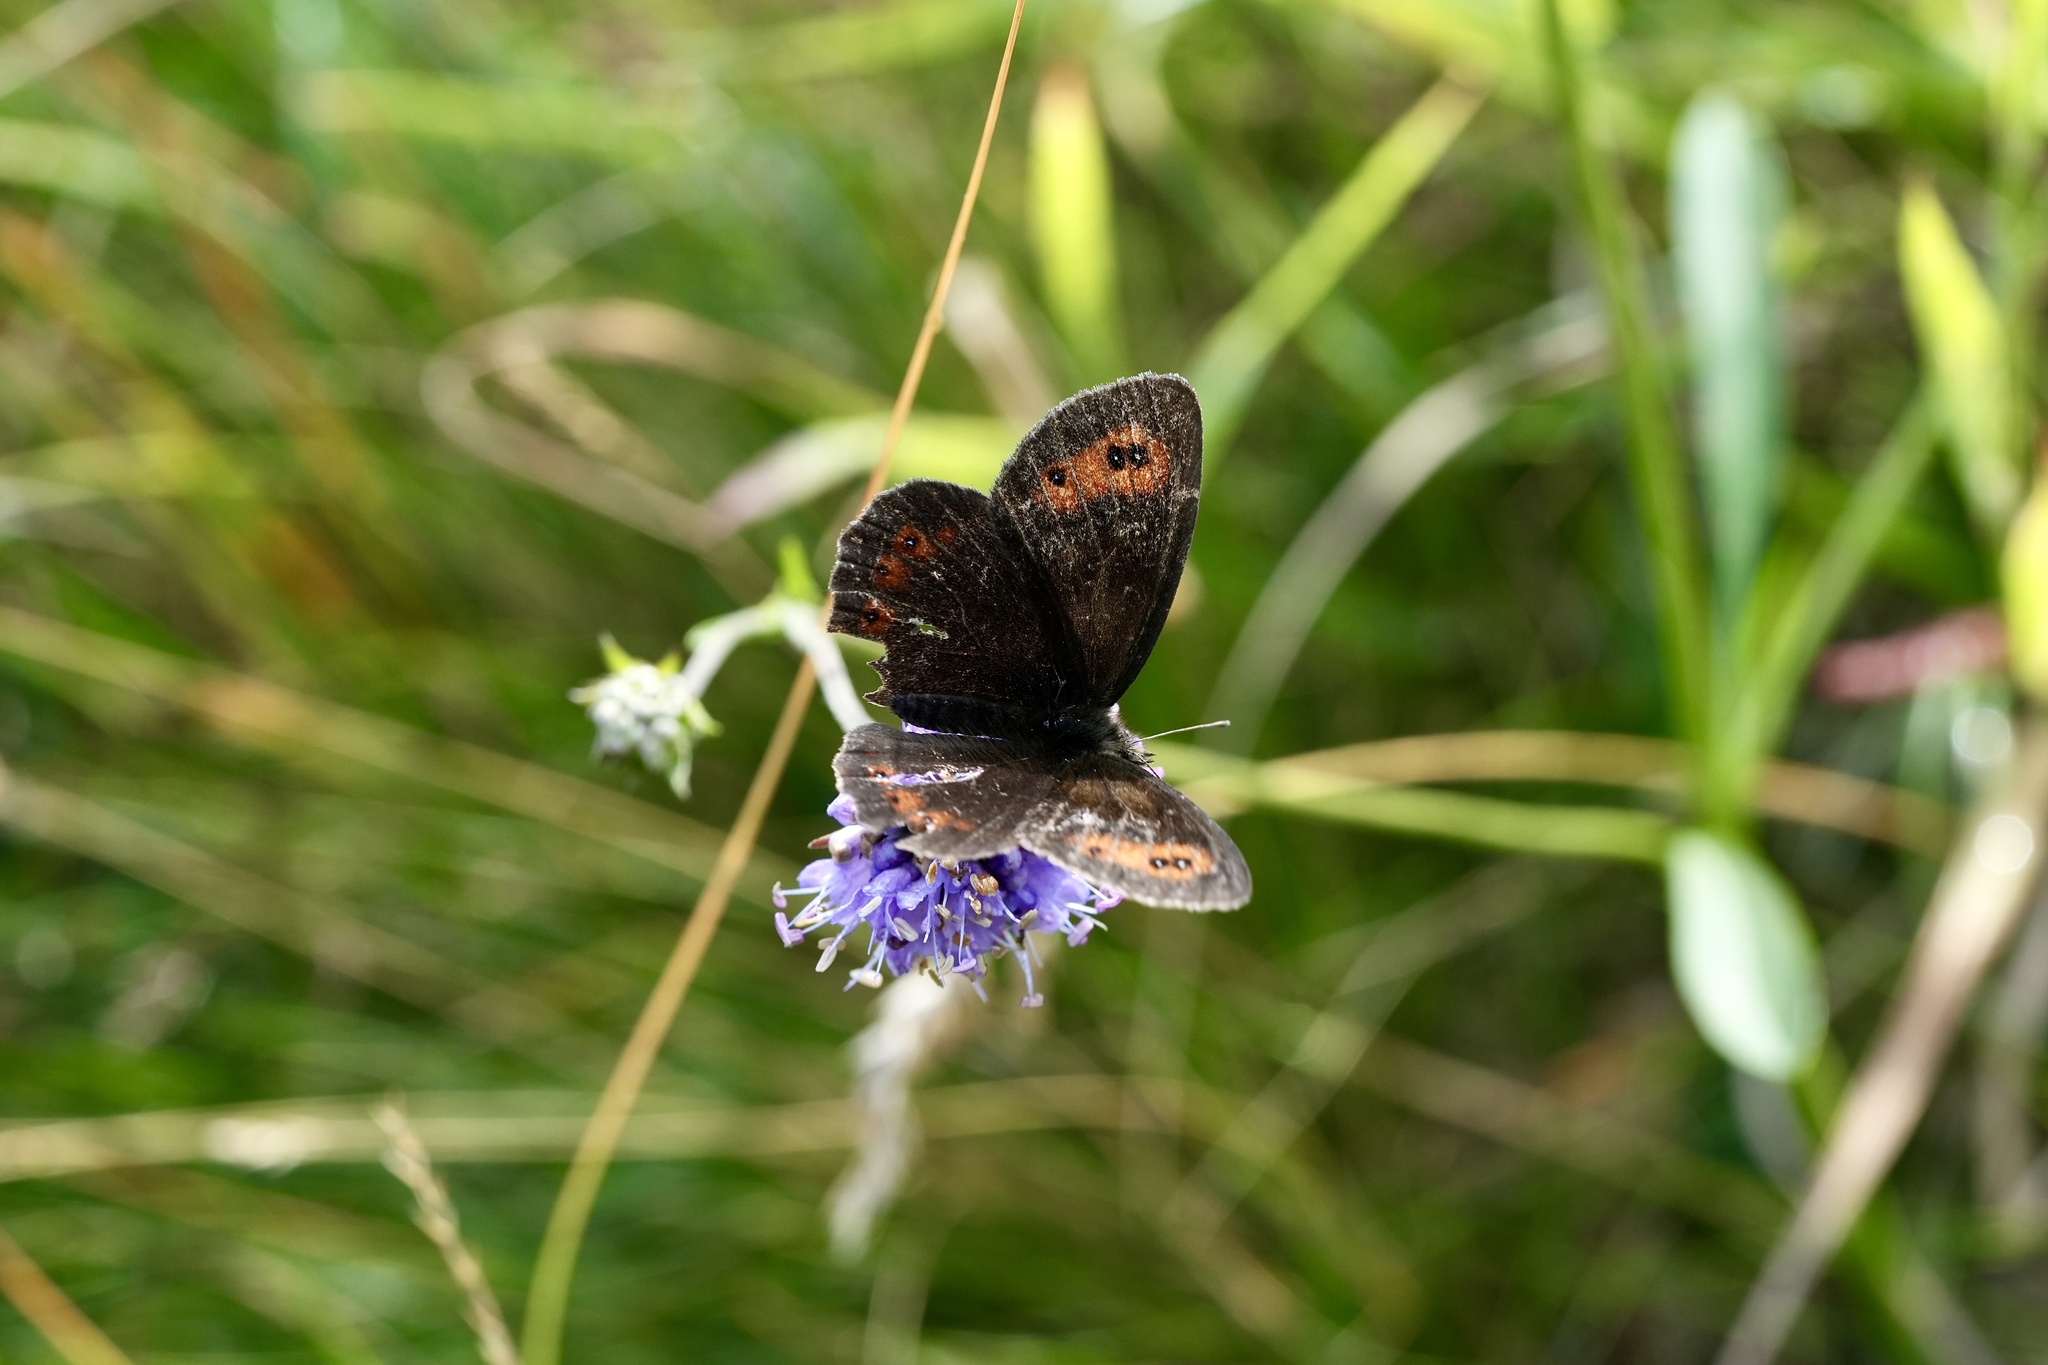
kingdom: Animalia
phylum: Arthropoda
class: Insecta
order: Lepidoptera
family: Nymphalidae
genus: Erebia
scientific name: Erebia aethiops
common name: Scotch argus
